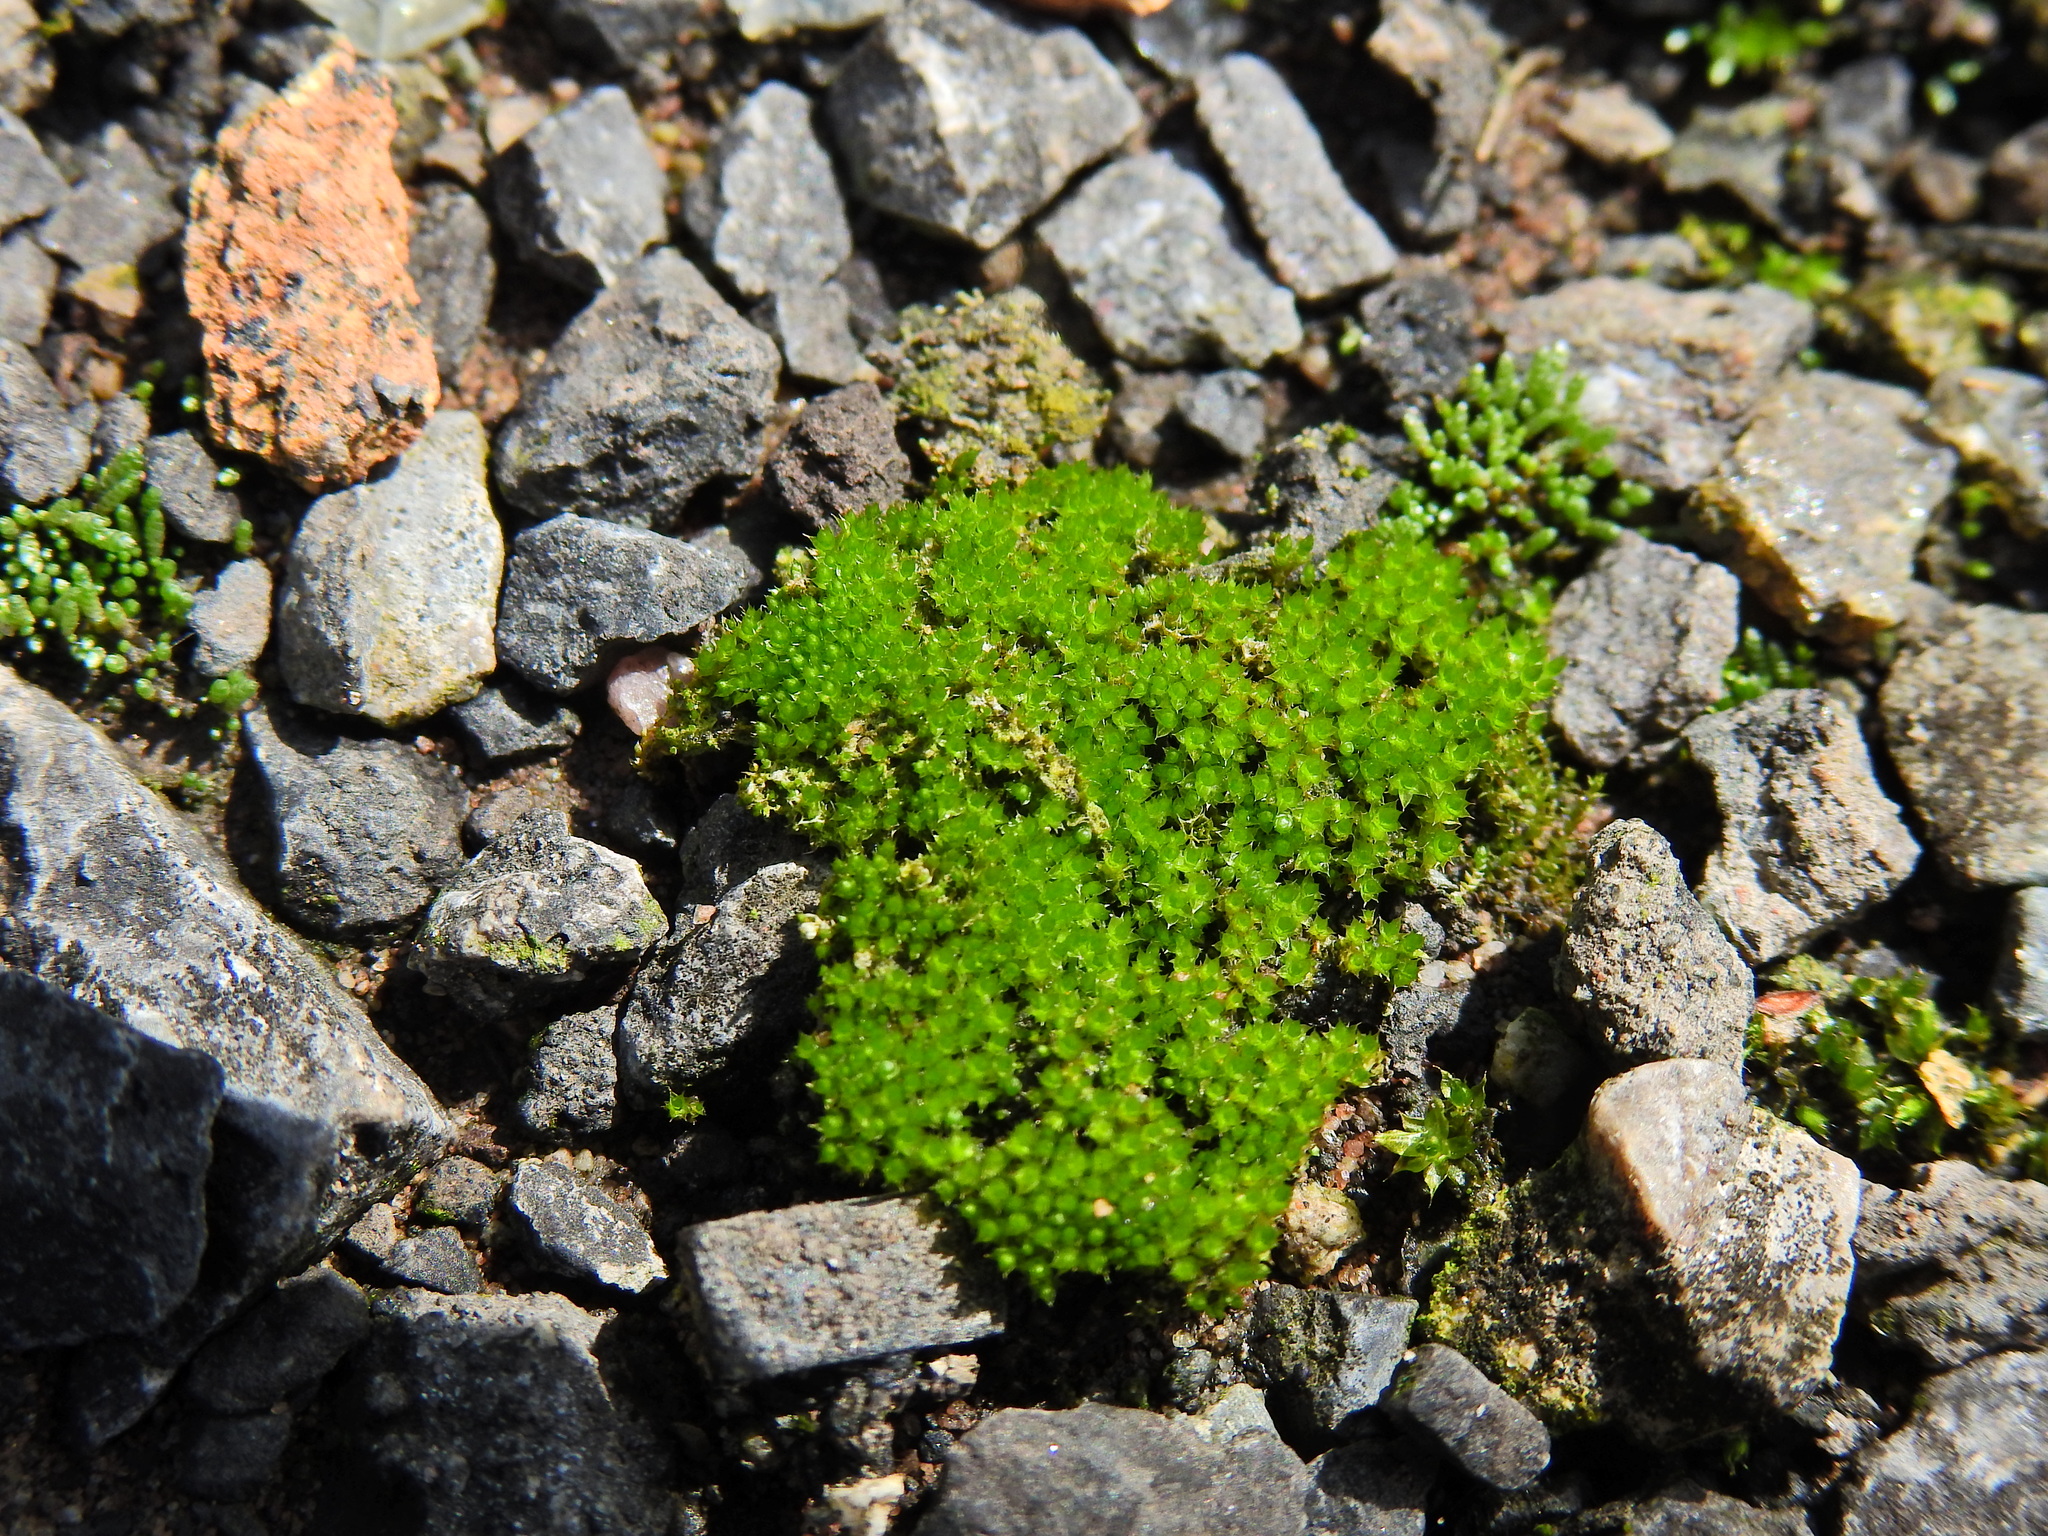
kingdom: Plantae
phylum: Bryophyta
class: Bryopsida
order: Bryales
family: Bryaceae
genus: Rosulabryum
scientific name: Rosulabryum capillare
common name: Capillary thread-moss
